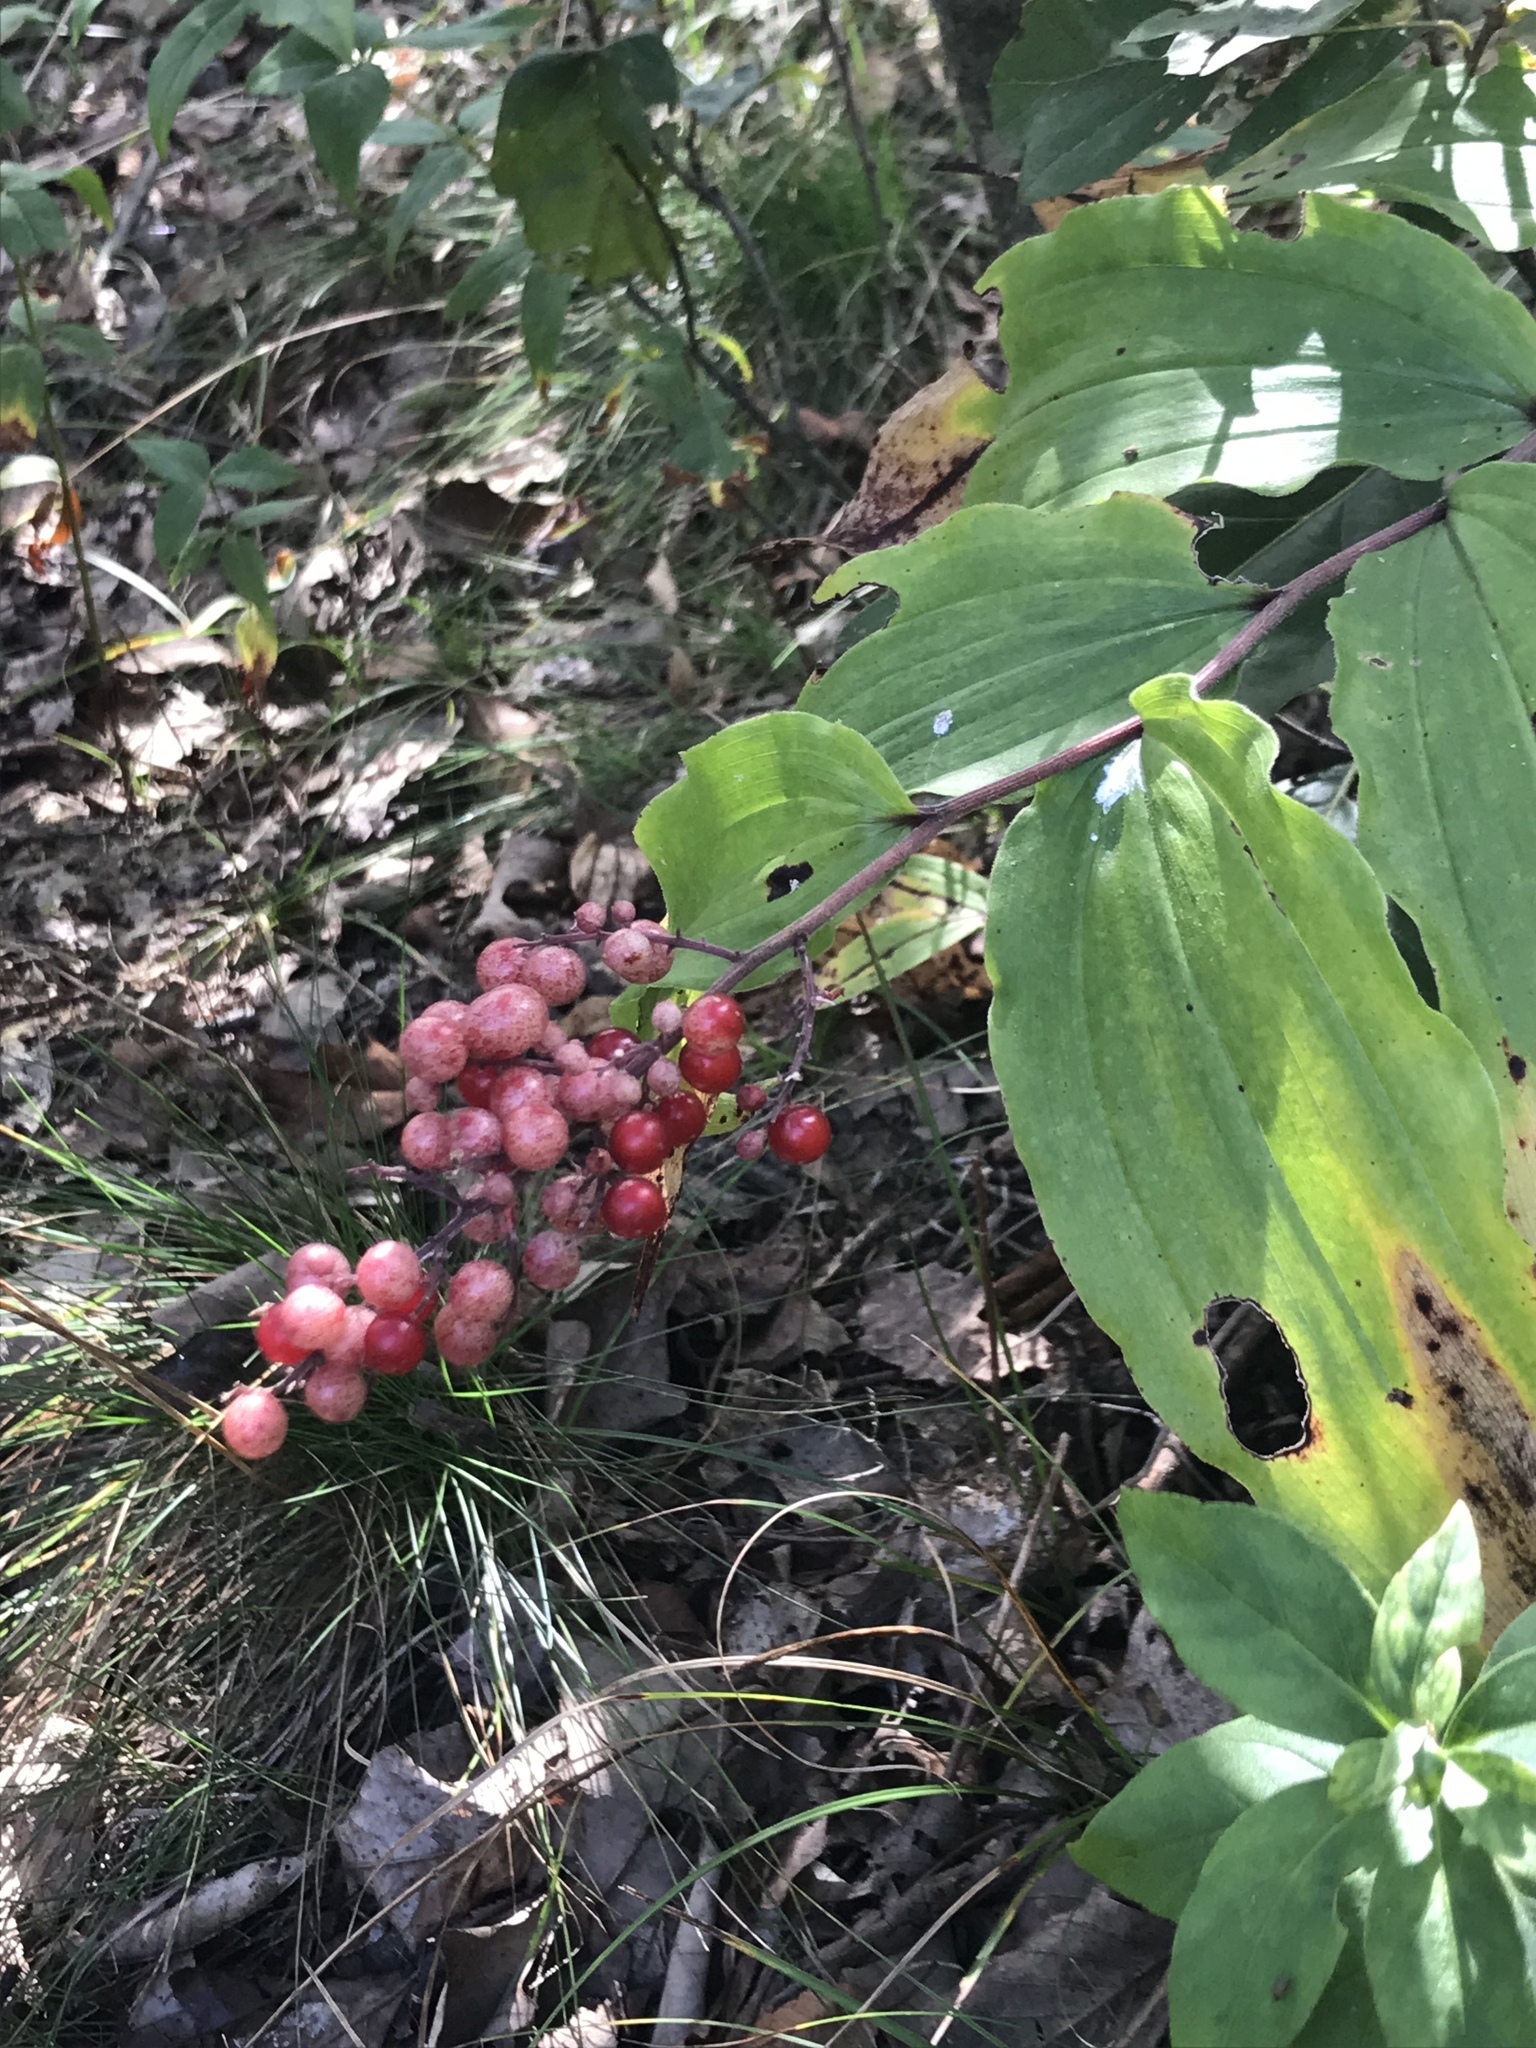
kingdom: Plantae
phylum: Tracheophyta
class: Liliopsida
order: Asparagales
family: Asparagaceae
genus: Maianthemum
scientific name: Maianthemum racemosum
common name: False spikenard
